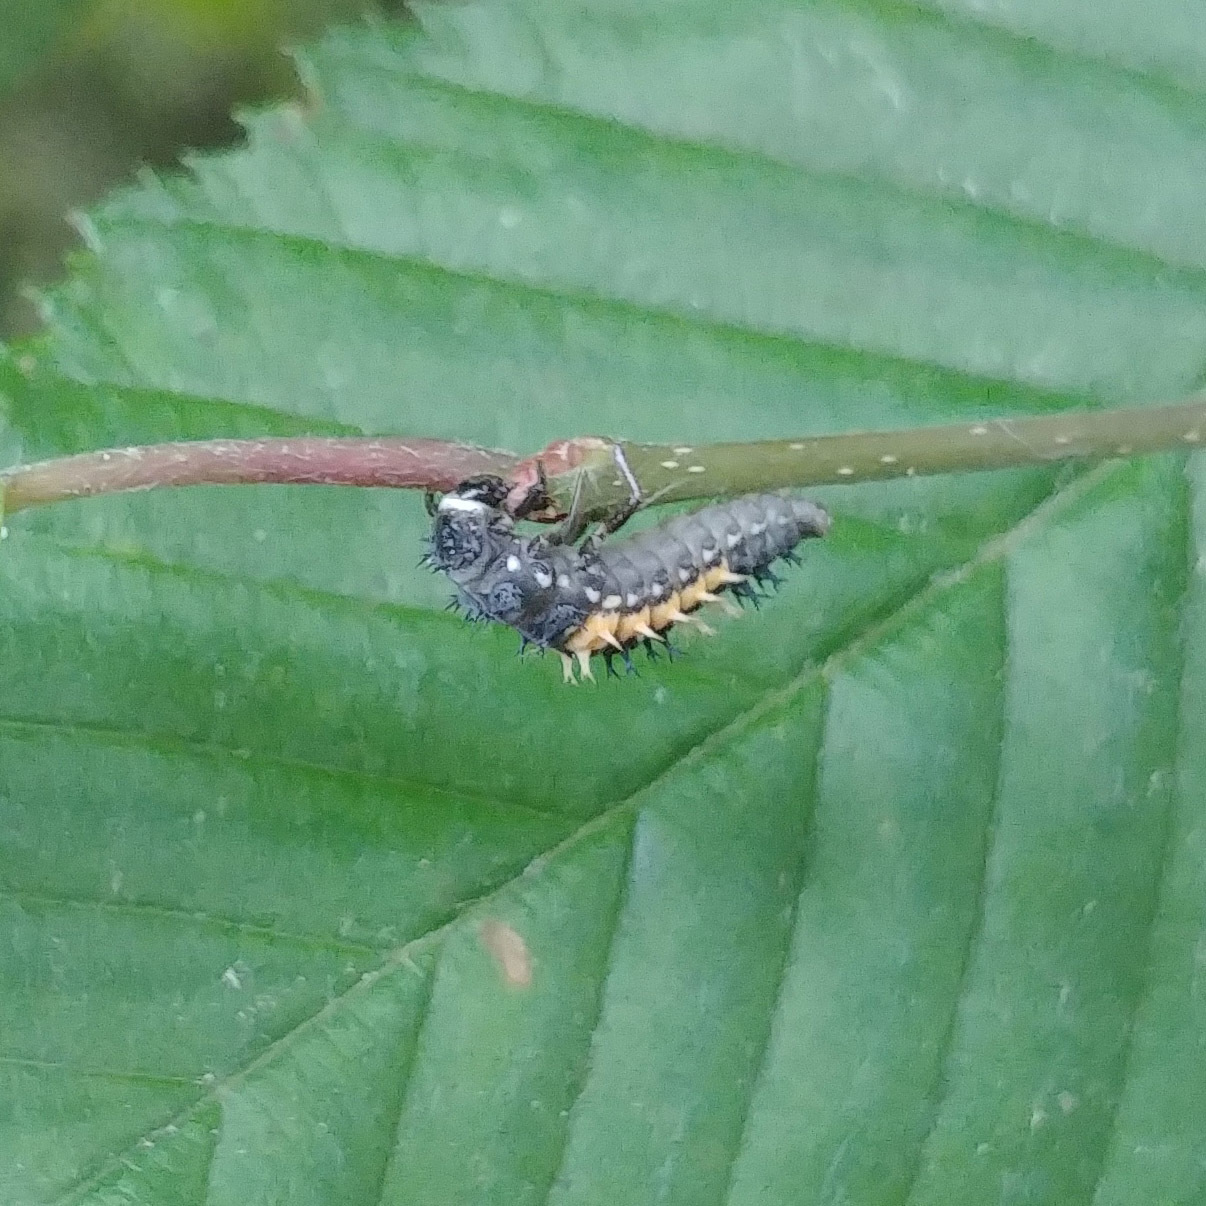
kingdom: Animalia
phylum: Arthropoda
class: Insecta
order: Coleoptera
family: Coccinellidae
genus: Harmonia
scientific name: Harmonia axyridis
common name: Harlequin ladybird
